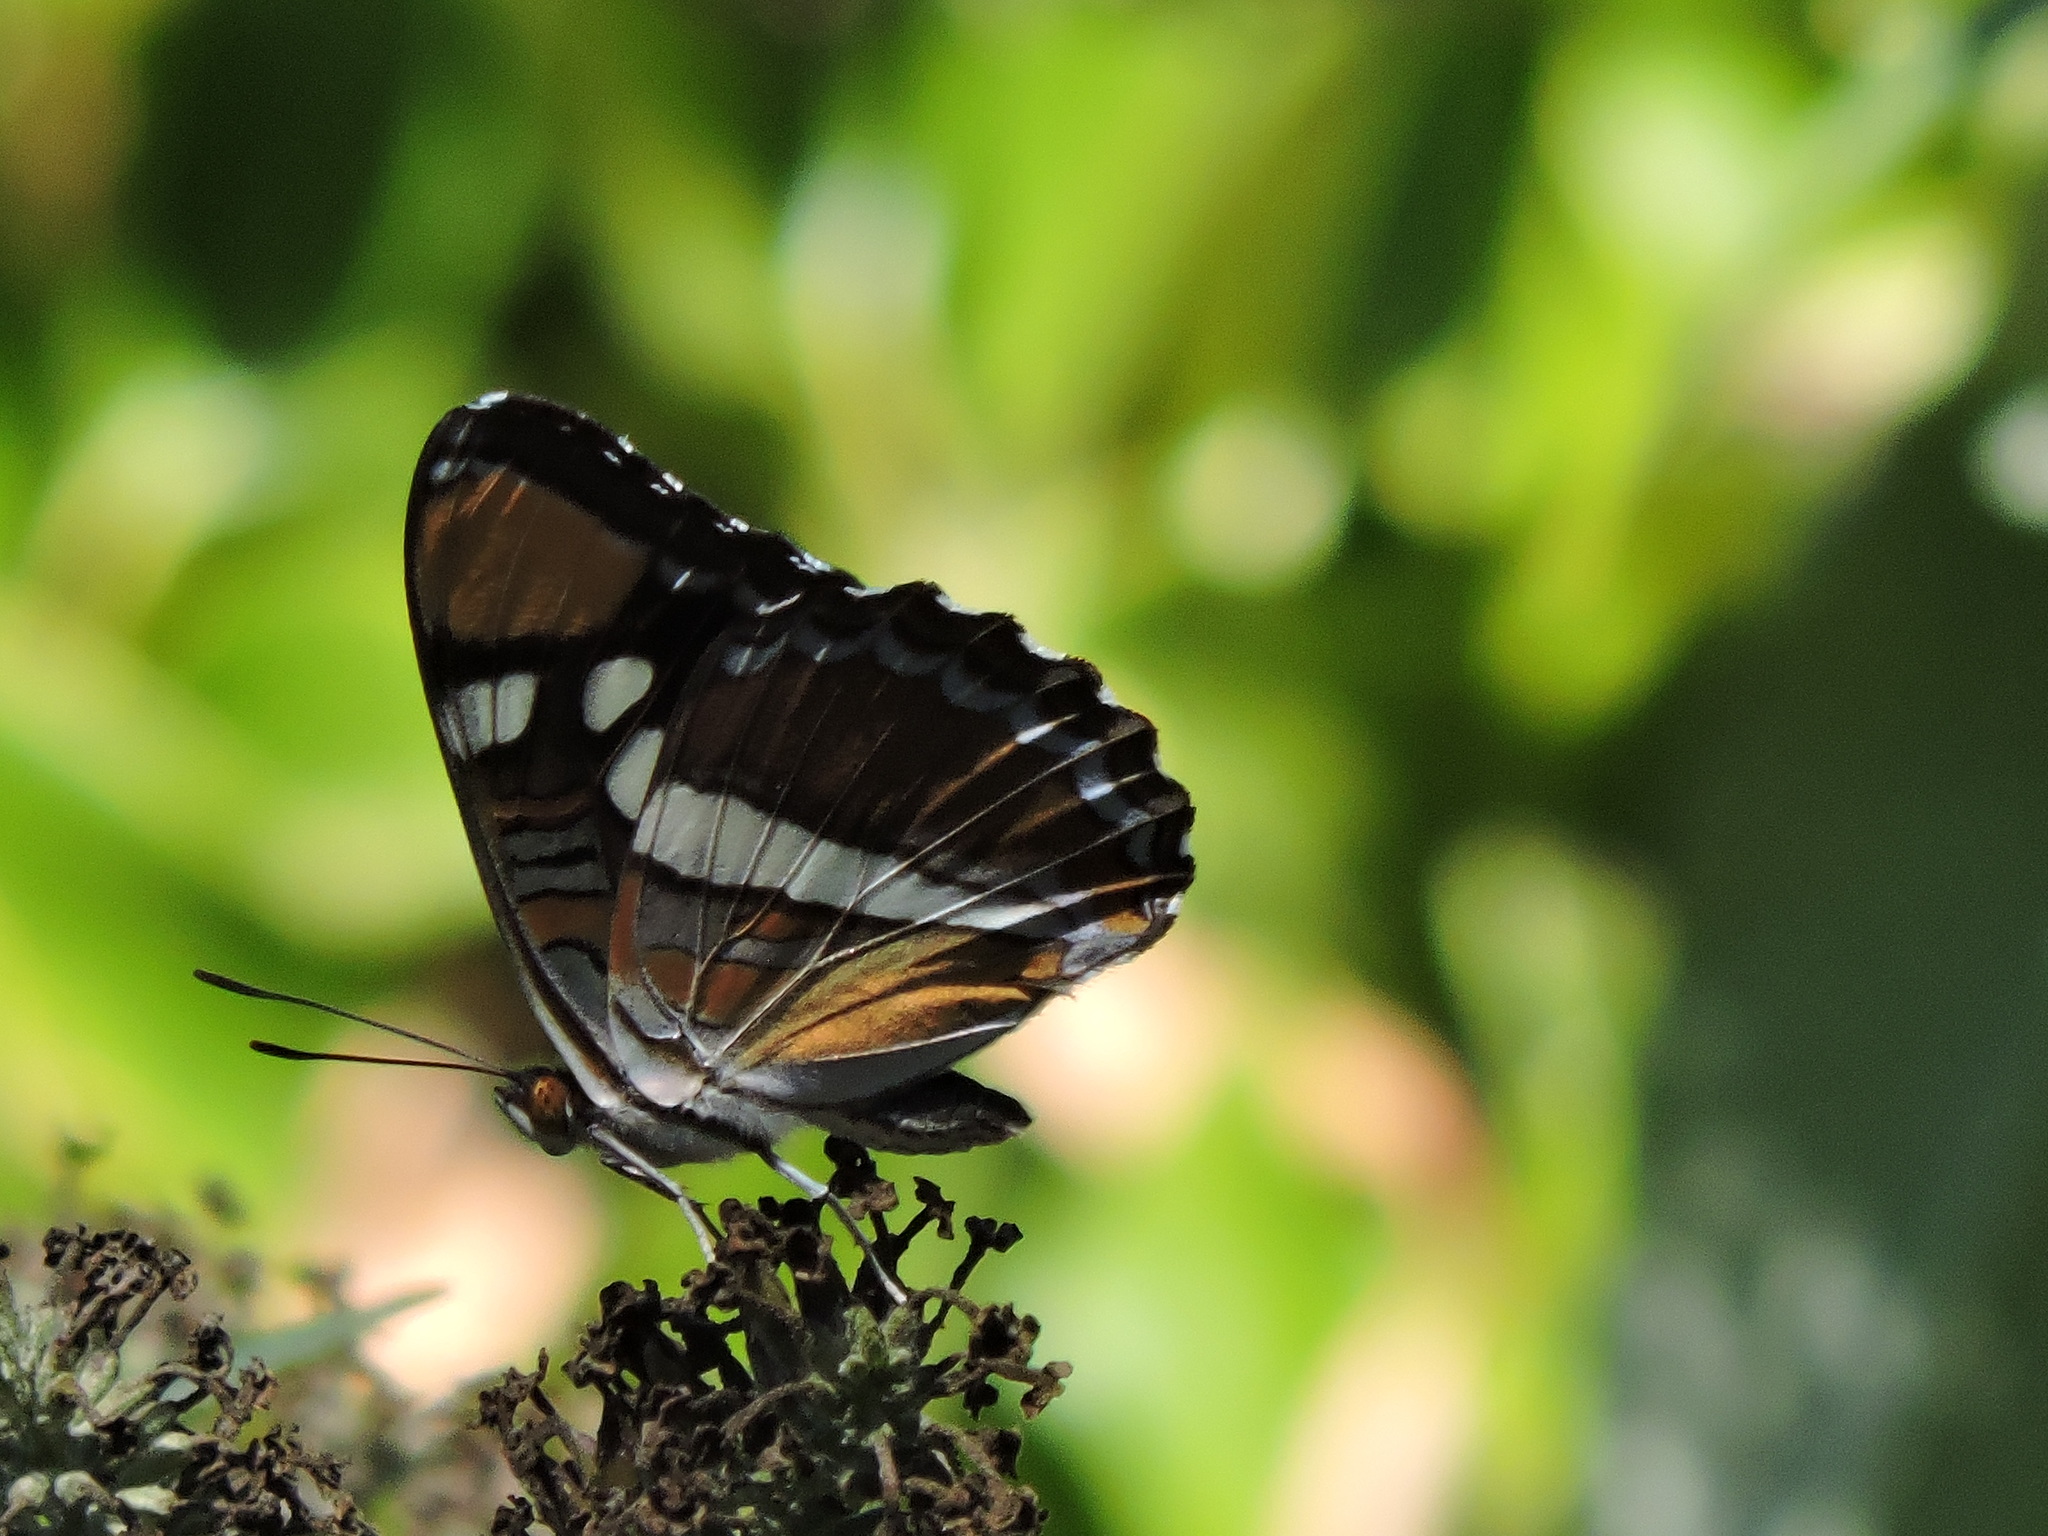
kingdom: Animalia
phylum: Arthropoda
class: Insecta
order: Lepidoptera
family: Nymphalidae
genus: Limenitis
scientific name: Limenitis bredowii
